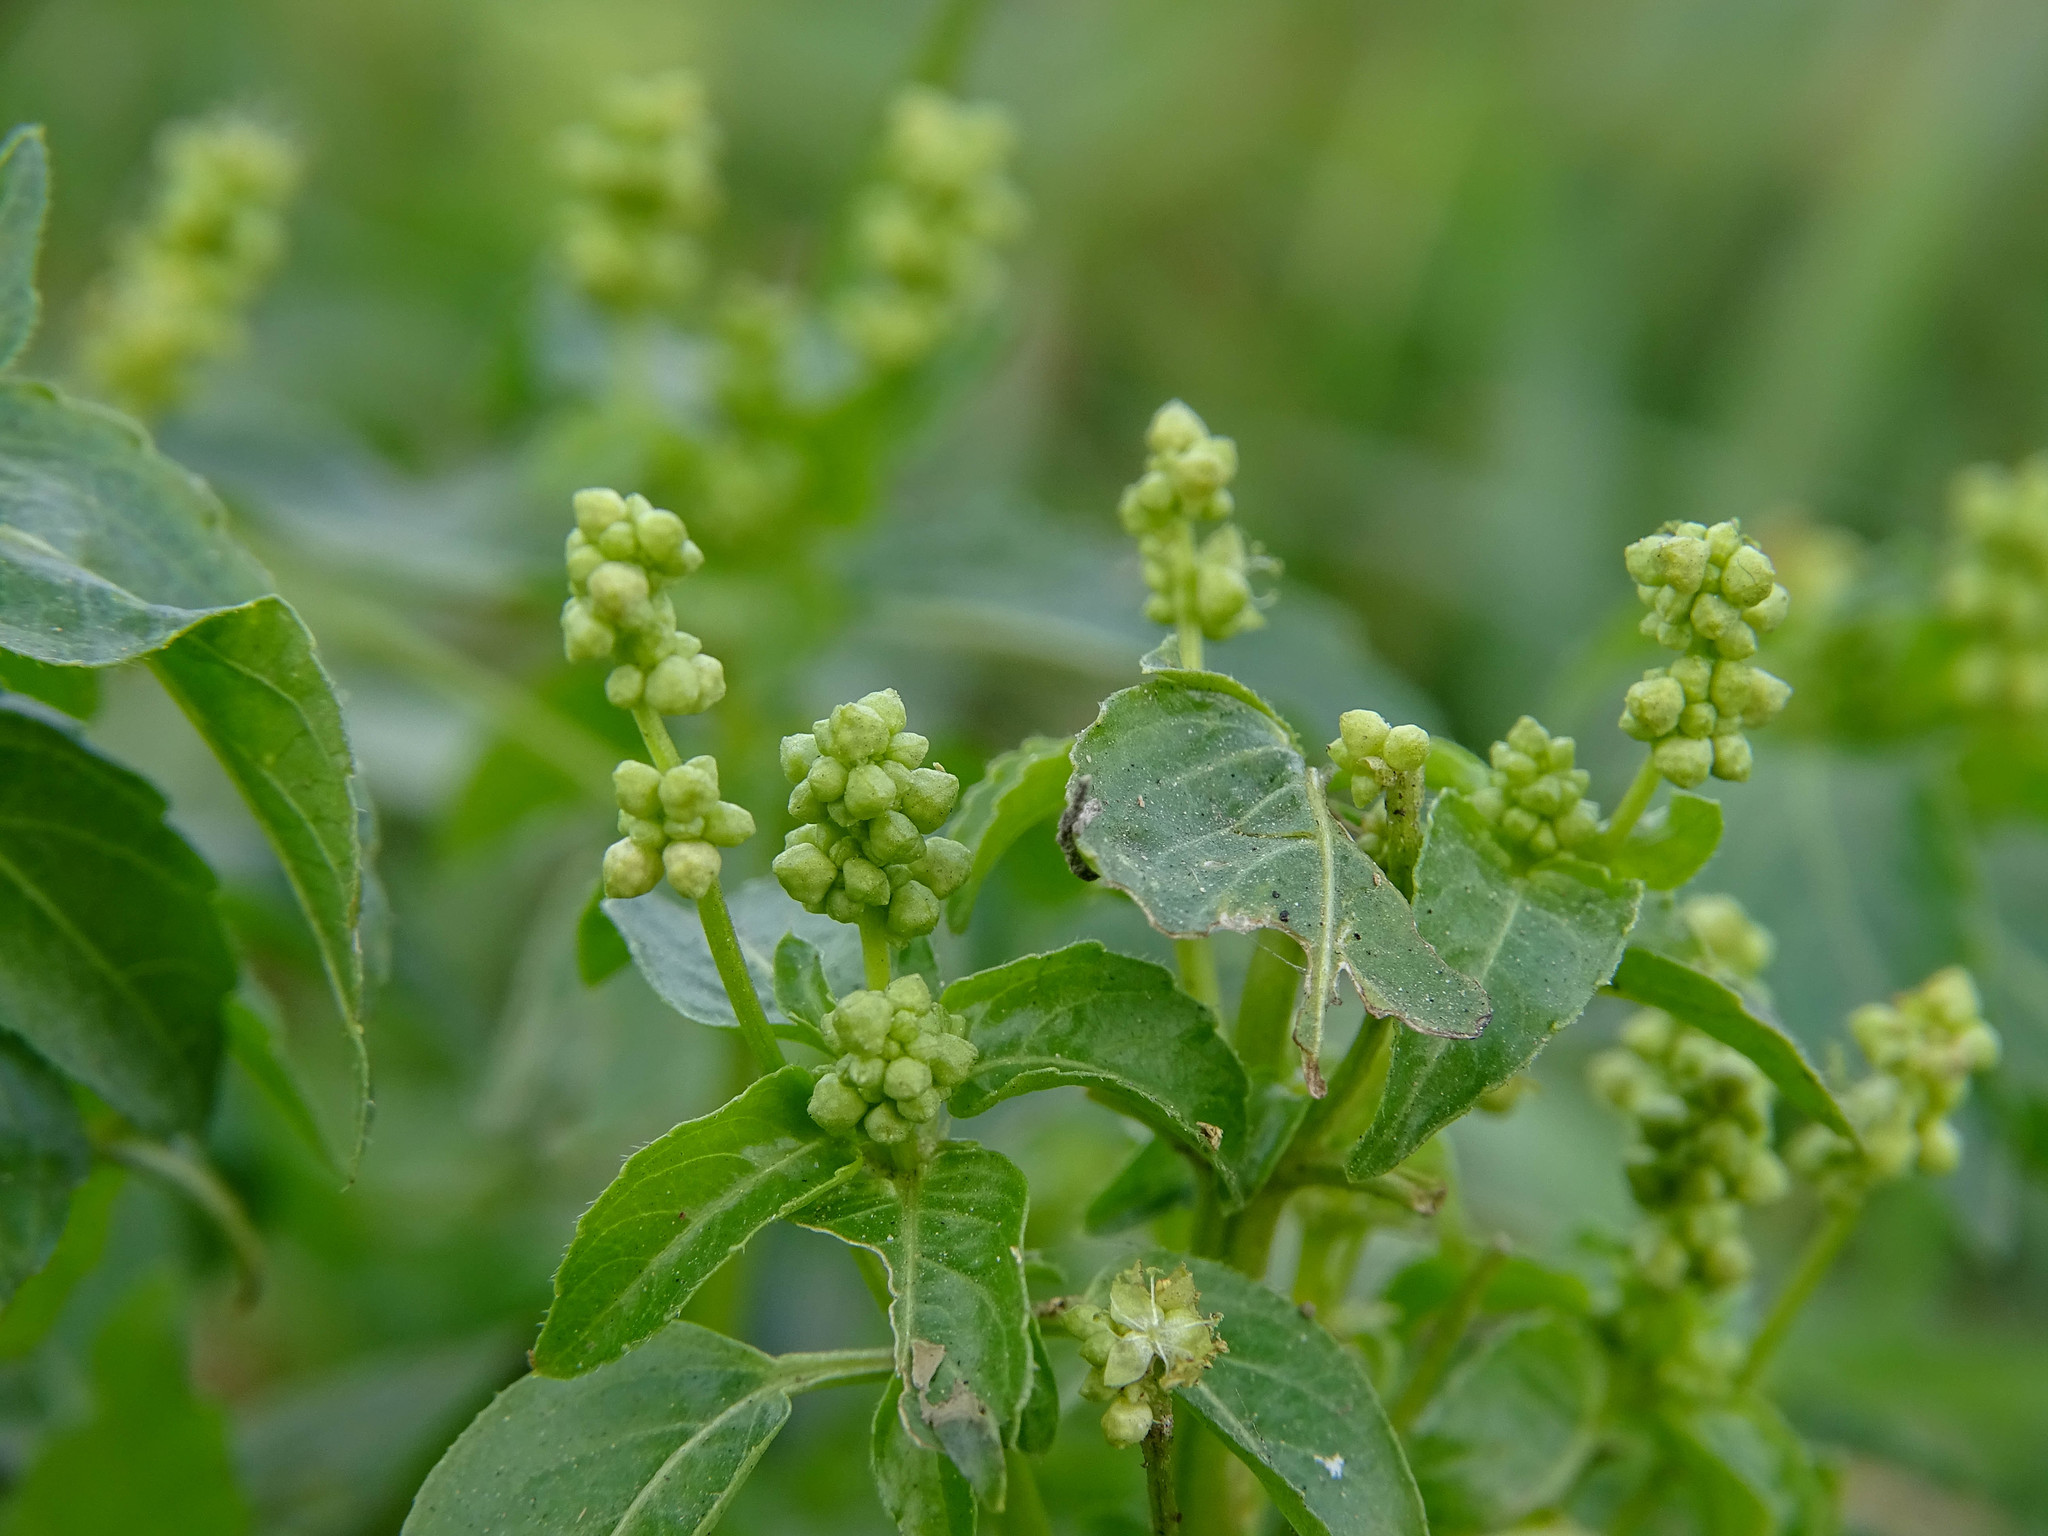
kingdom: Plantae
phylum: Tracheophyta
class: Magnoliopsida
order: Malpighiales
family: Euphorbiaceae
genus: Mercurialis
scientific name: Mercurialis annua
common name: Annual mercury
